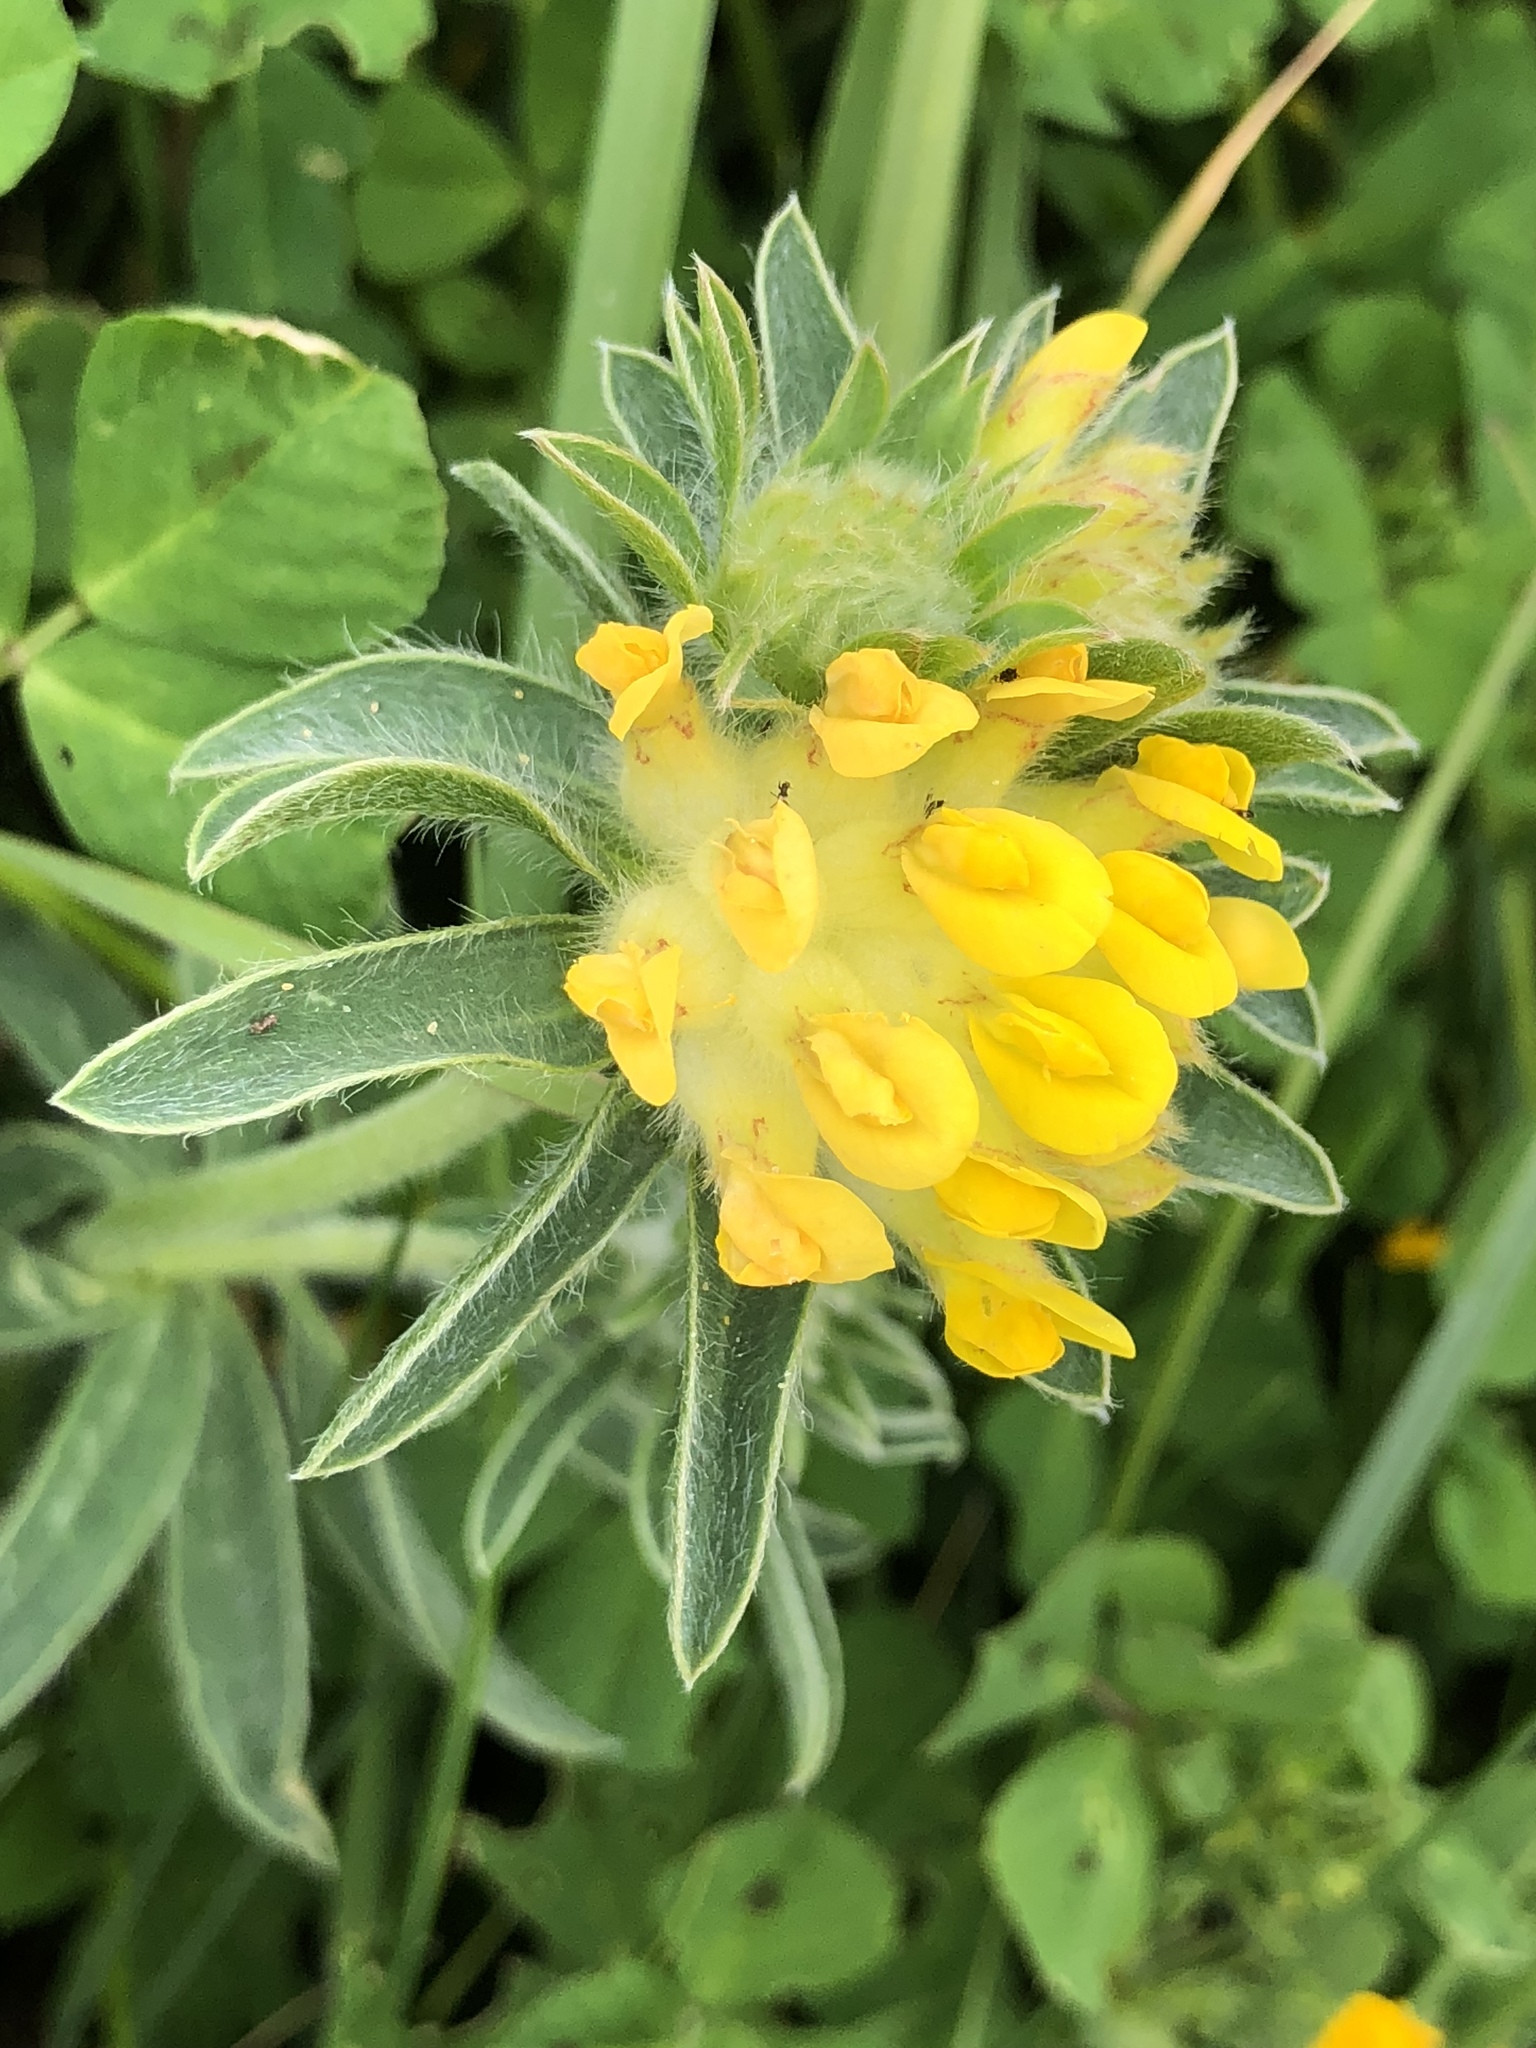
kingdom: Plantae
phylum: Tracheophyta
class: Magnoliopsida
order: Fabales
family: Fabaceae
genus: Anthyllis
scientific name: Anthyllis vulneraria
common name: Kidney vetch
